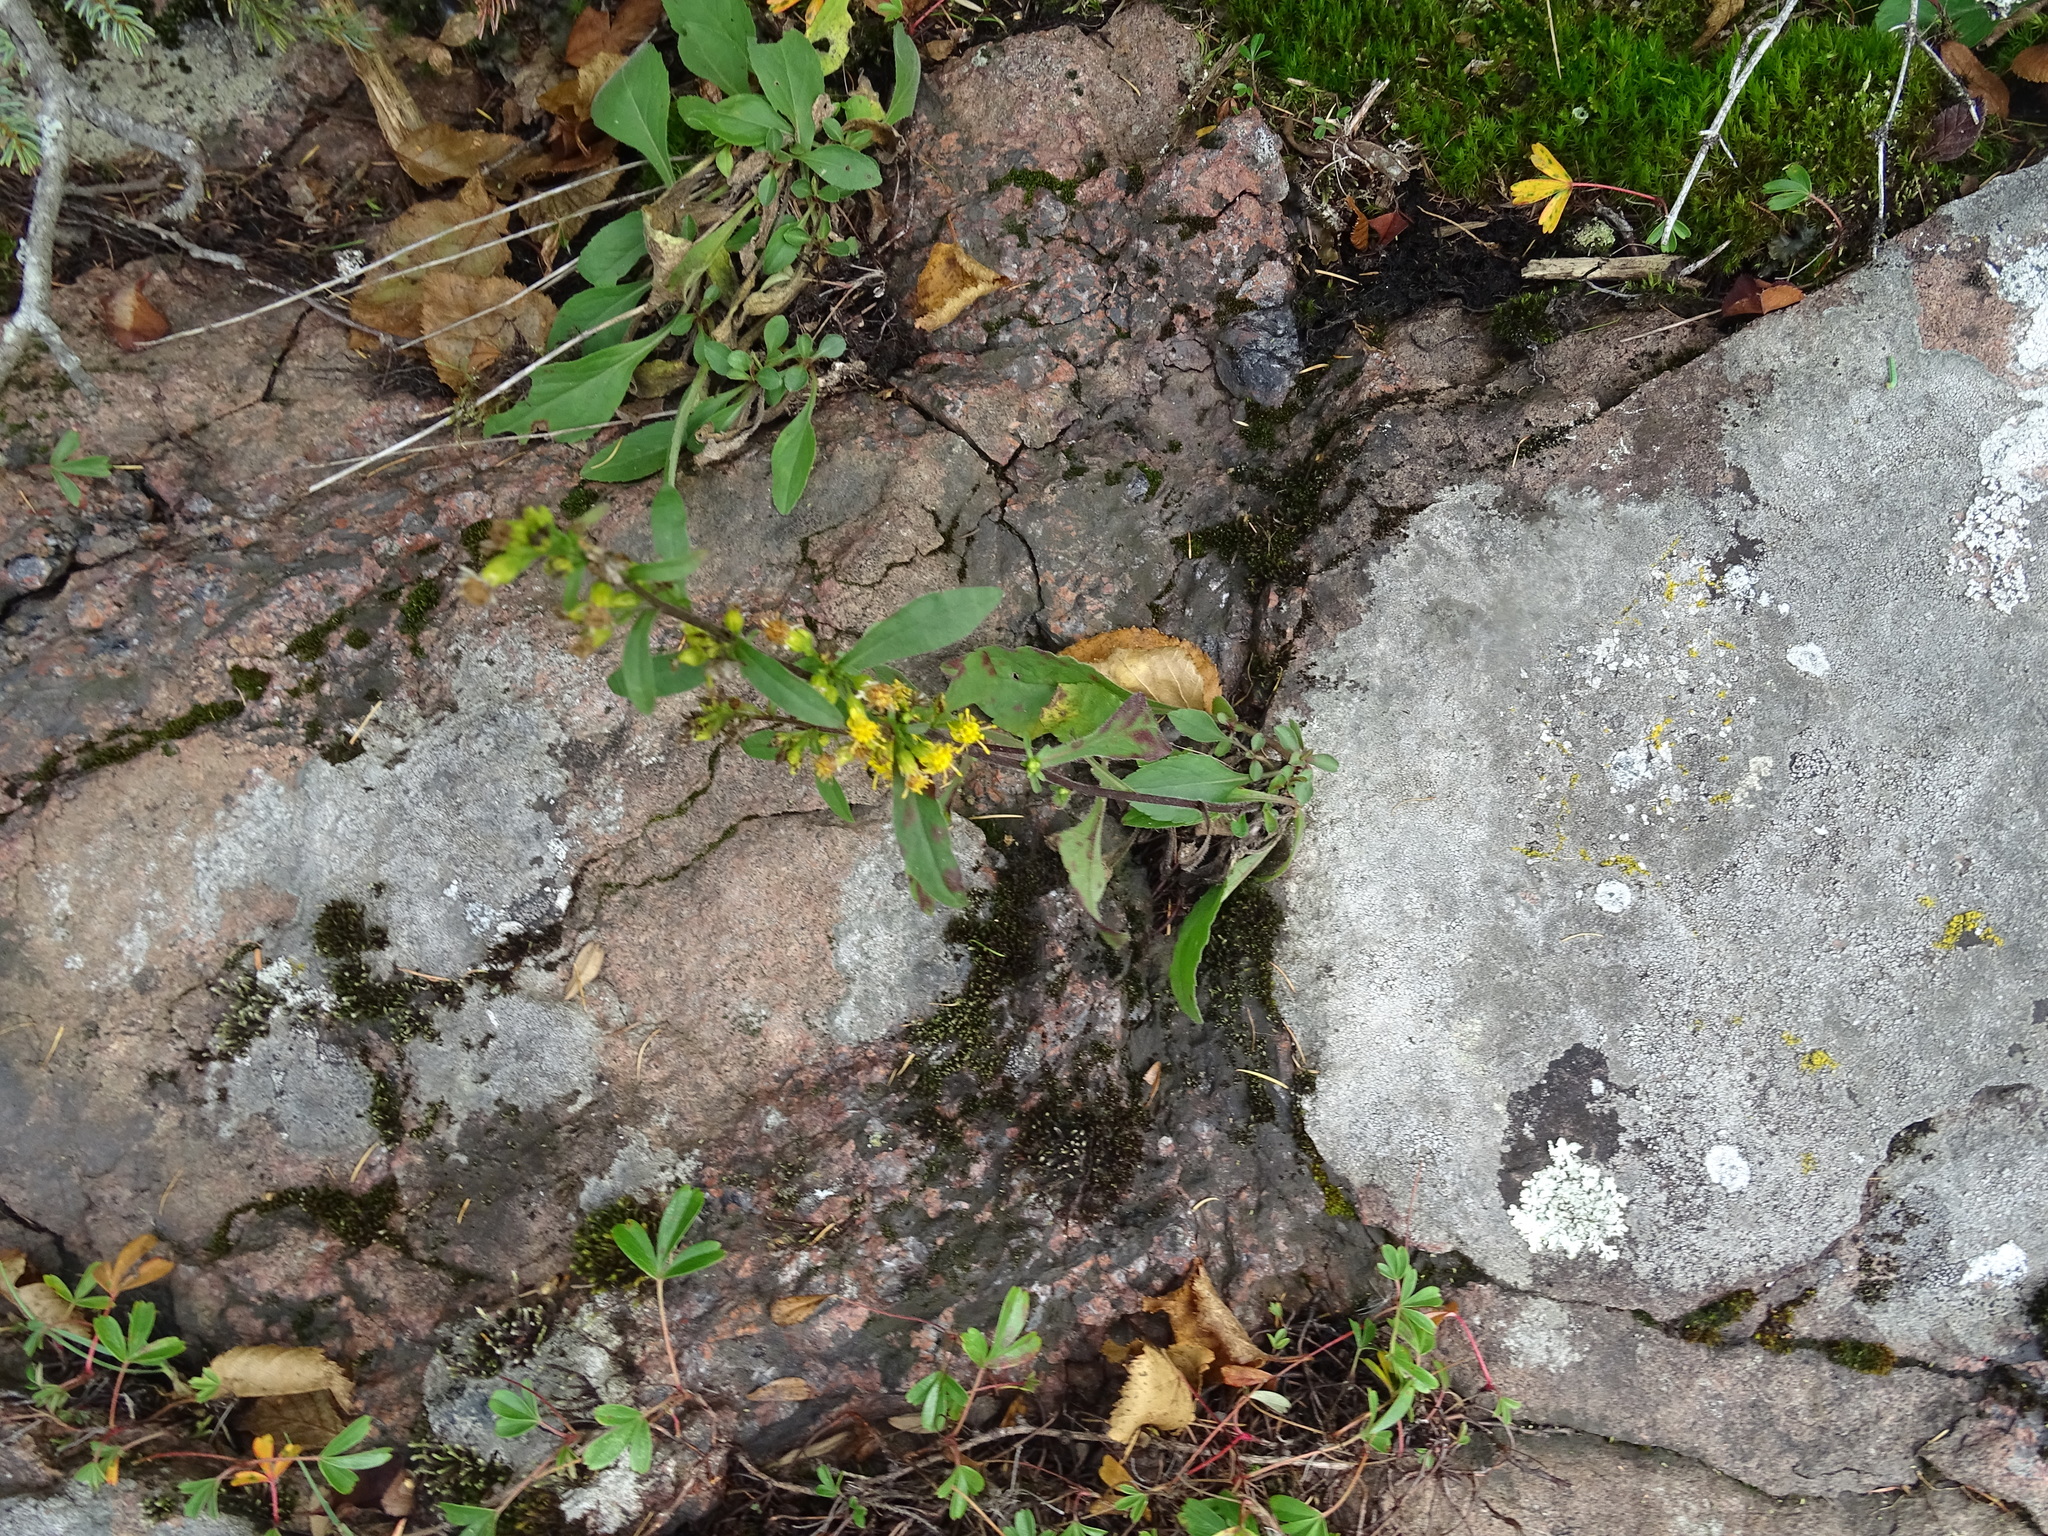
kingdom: Plantae
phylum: Tracheophyta
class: Magnoliopsida
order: Asterales
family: Asteraceae
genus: Solidago
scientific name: Solidago hispida
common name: Hairy goldenrod
